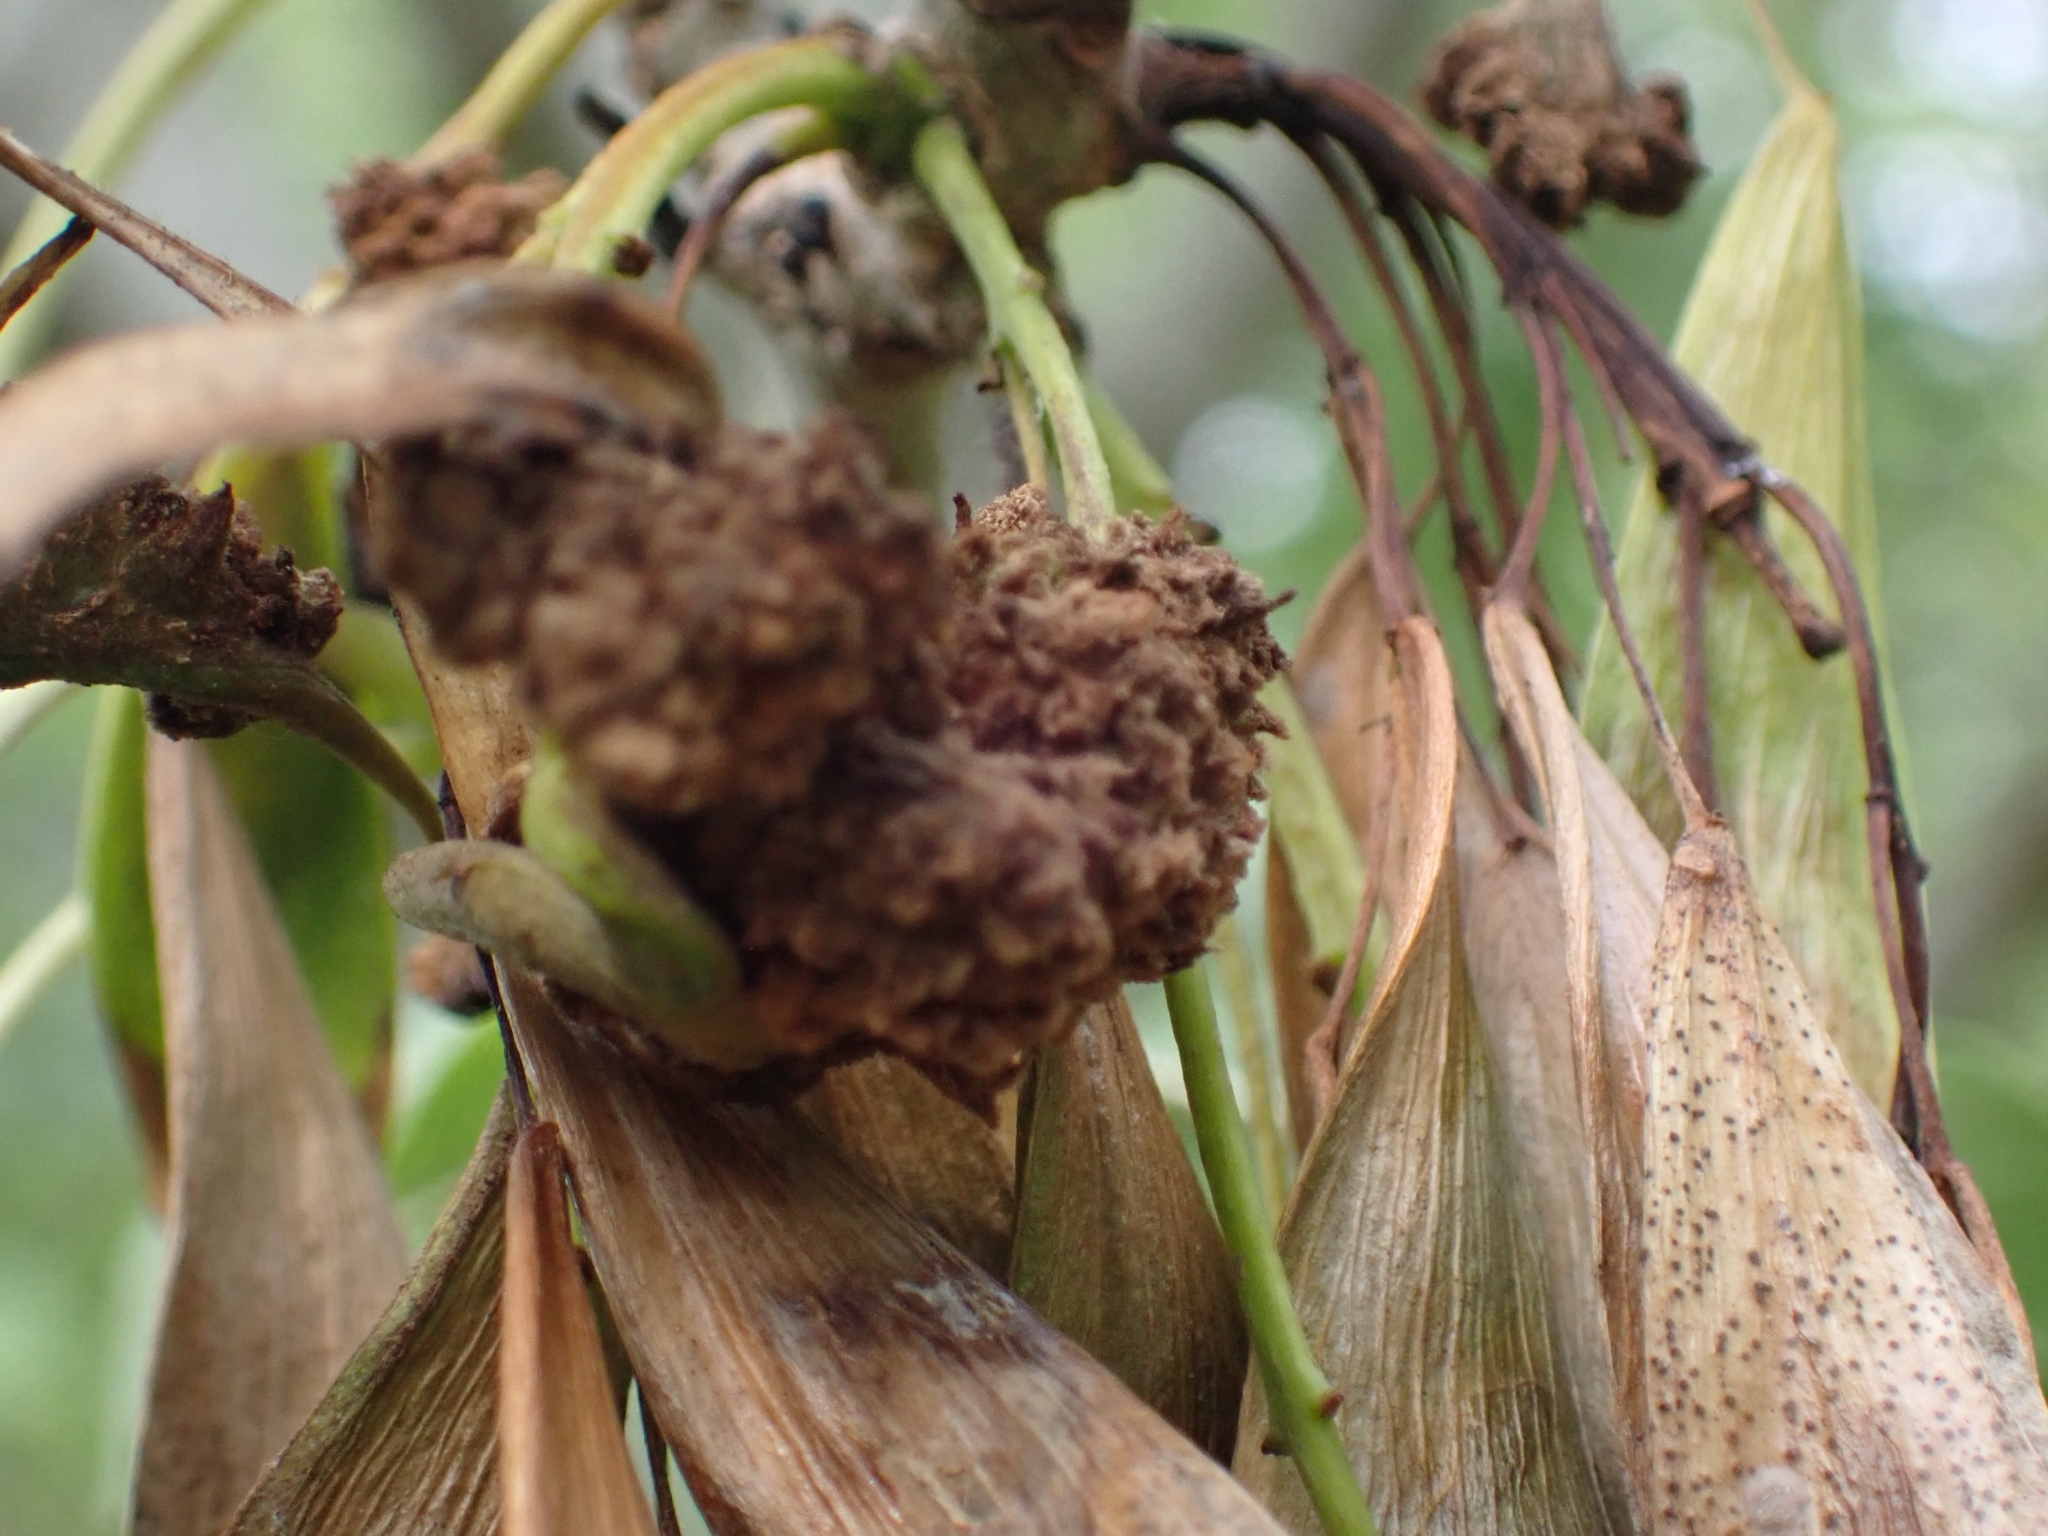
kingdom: Animalia
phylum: Arthropoda
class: Arachnida
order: Trombidiformes
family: Eriophyidae
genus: Aceria
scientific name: Aceria fraxinivora
